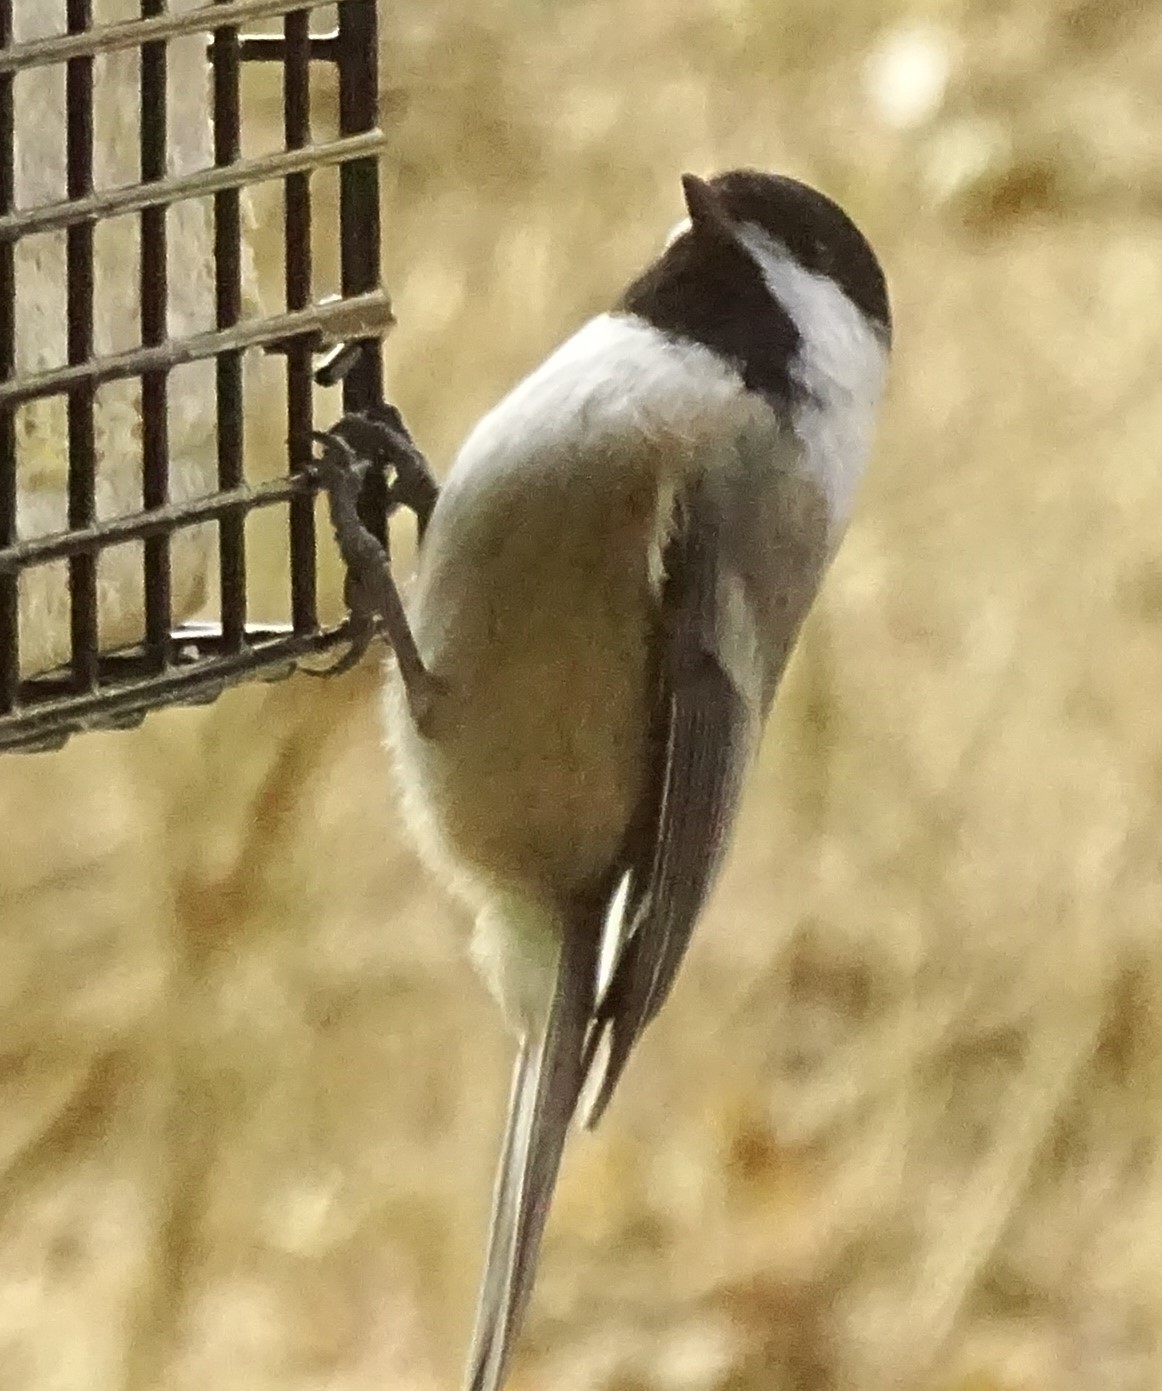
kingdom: Animalia
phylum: Chordata
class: Aves
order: Passeriformes
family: Paridae
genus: Poecile
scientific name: Poecile atricapillus
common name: Black-capped chickadee
